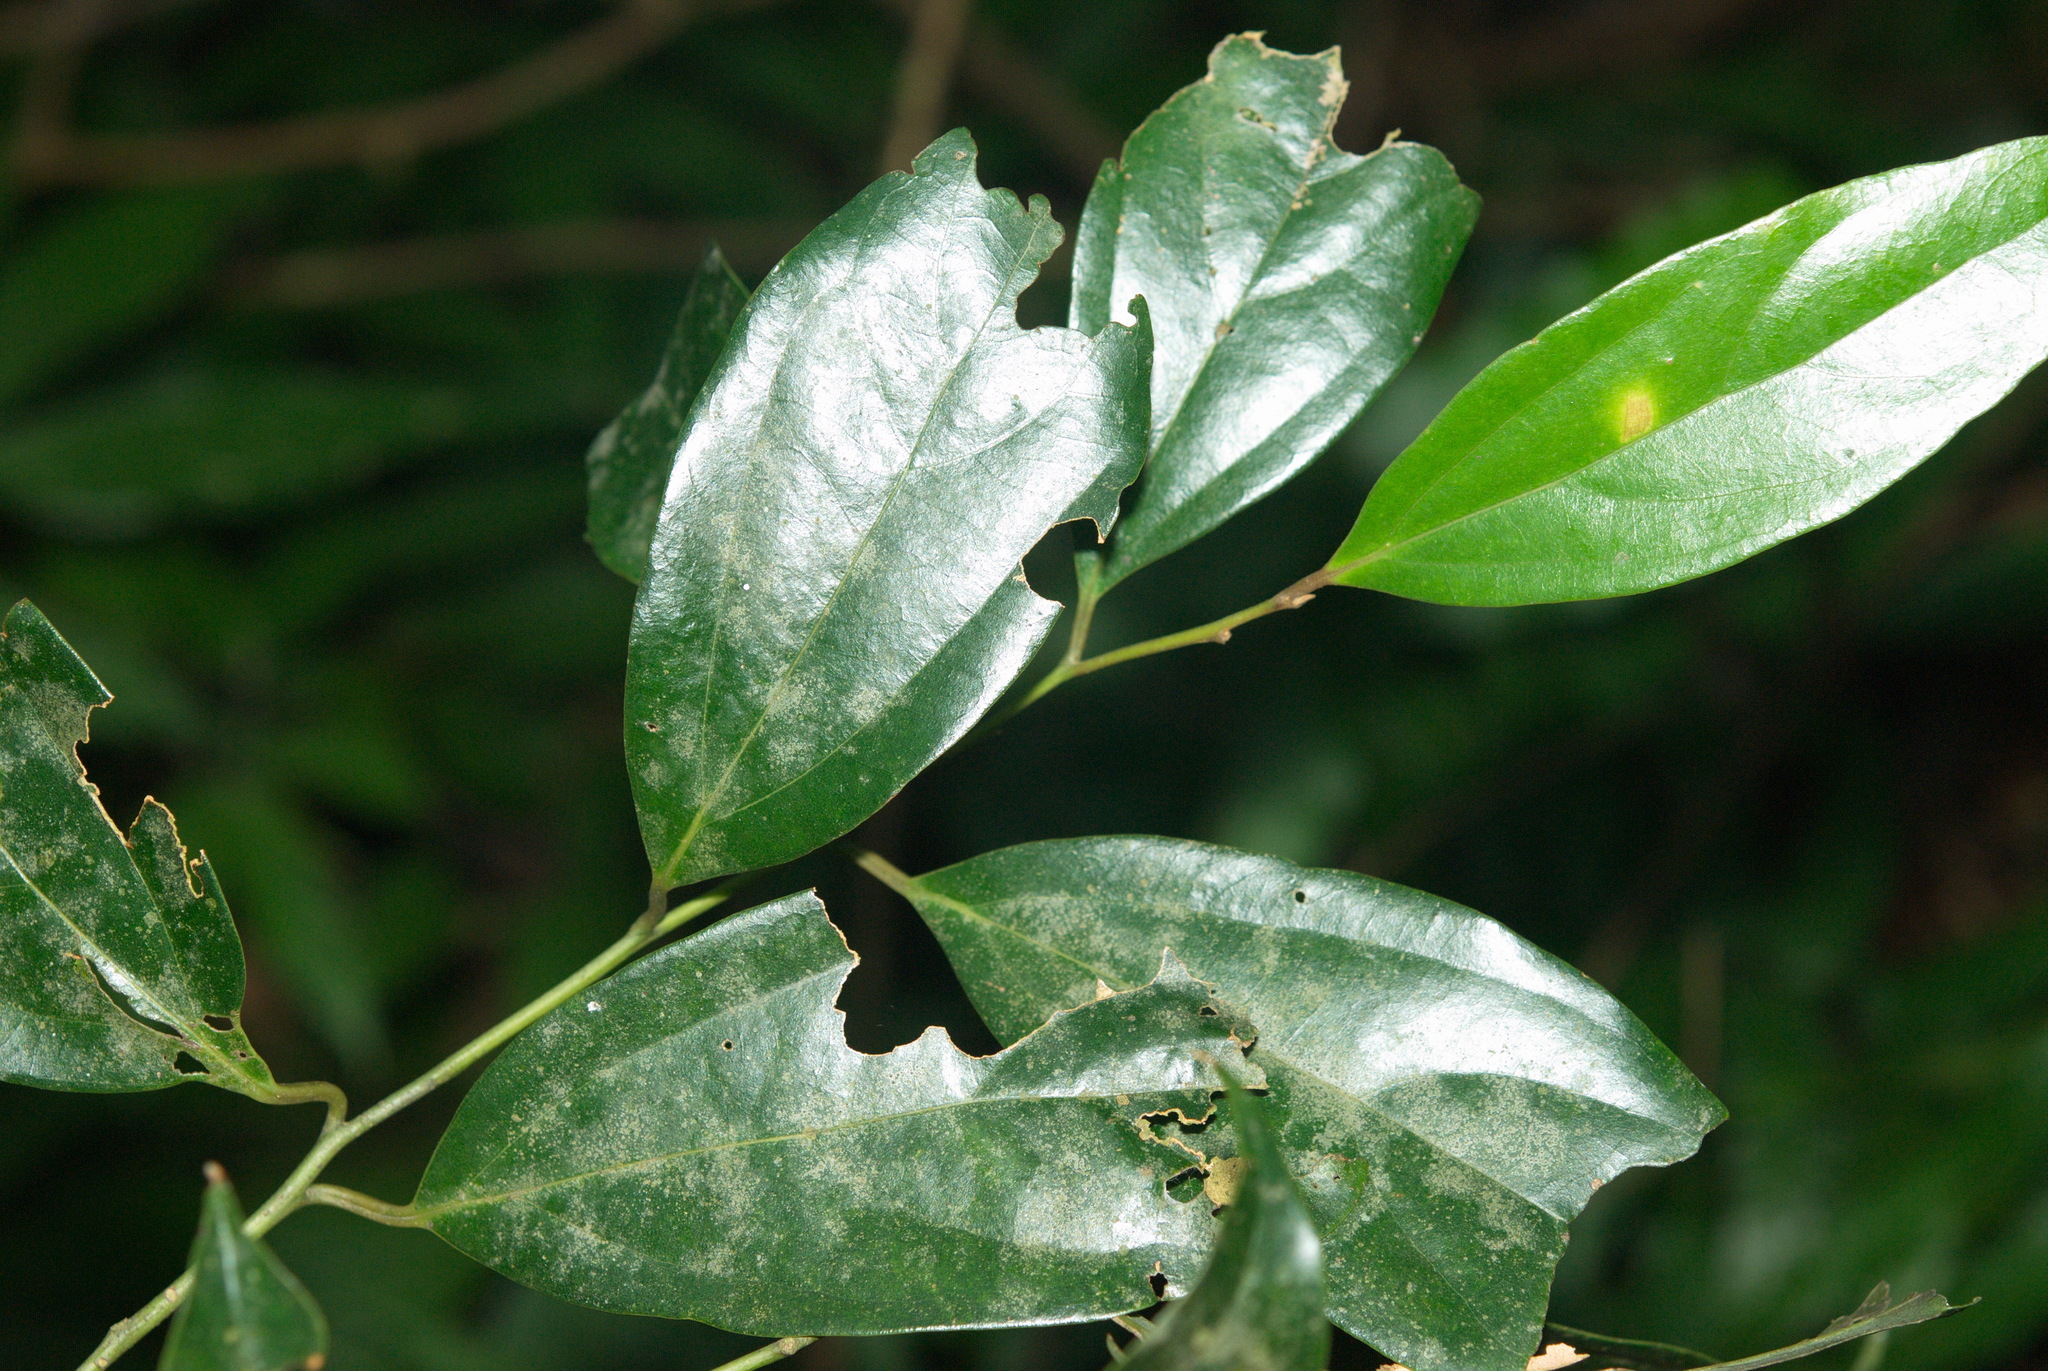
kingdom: Plantae
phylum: Tracheophyta
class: Magnoliopsida
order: Laurales
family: Lauraceae
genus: Cryptocarya
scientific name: Cryptocarya chinensis
